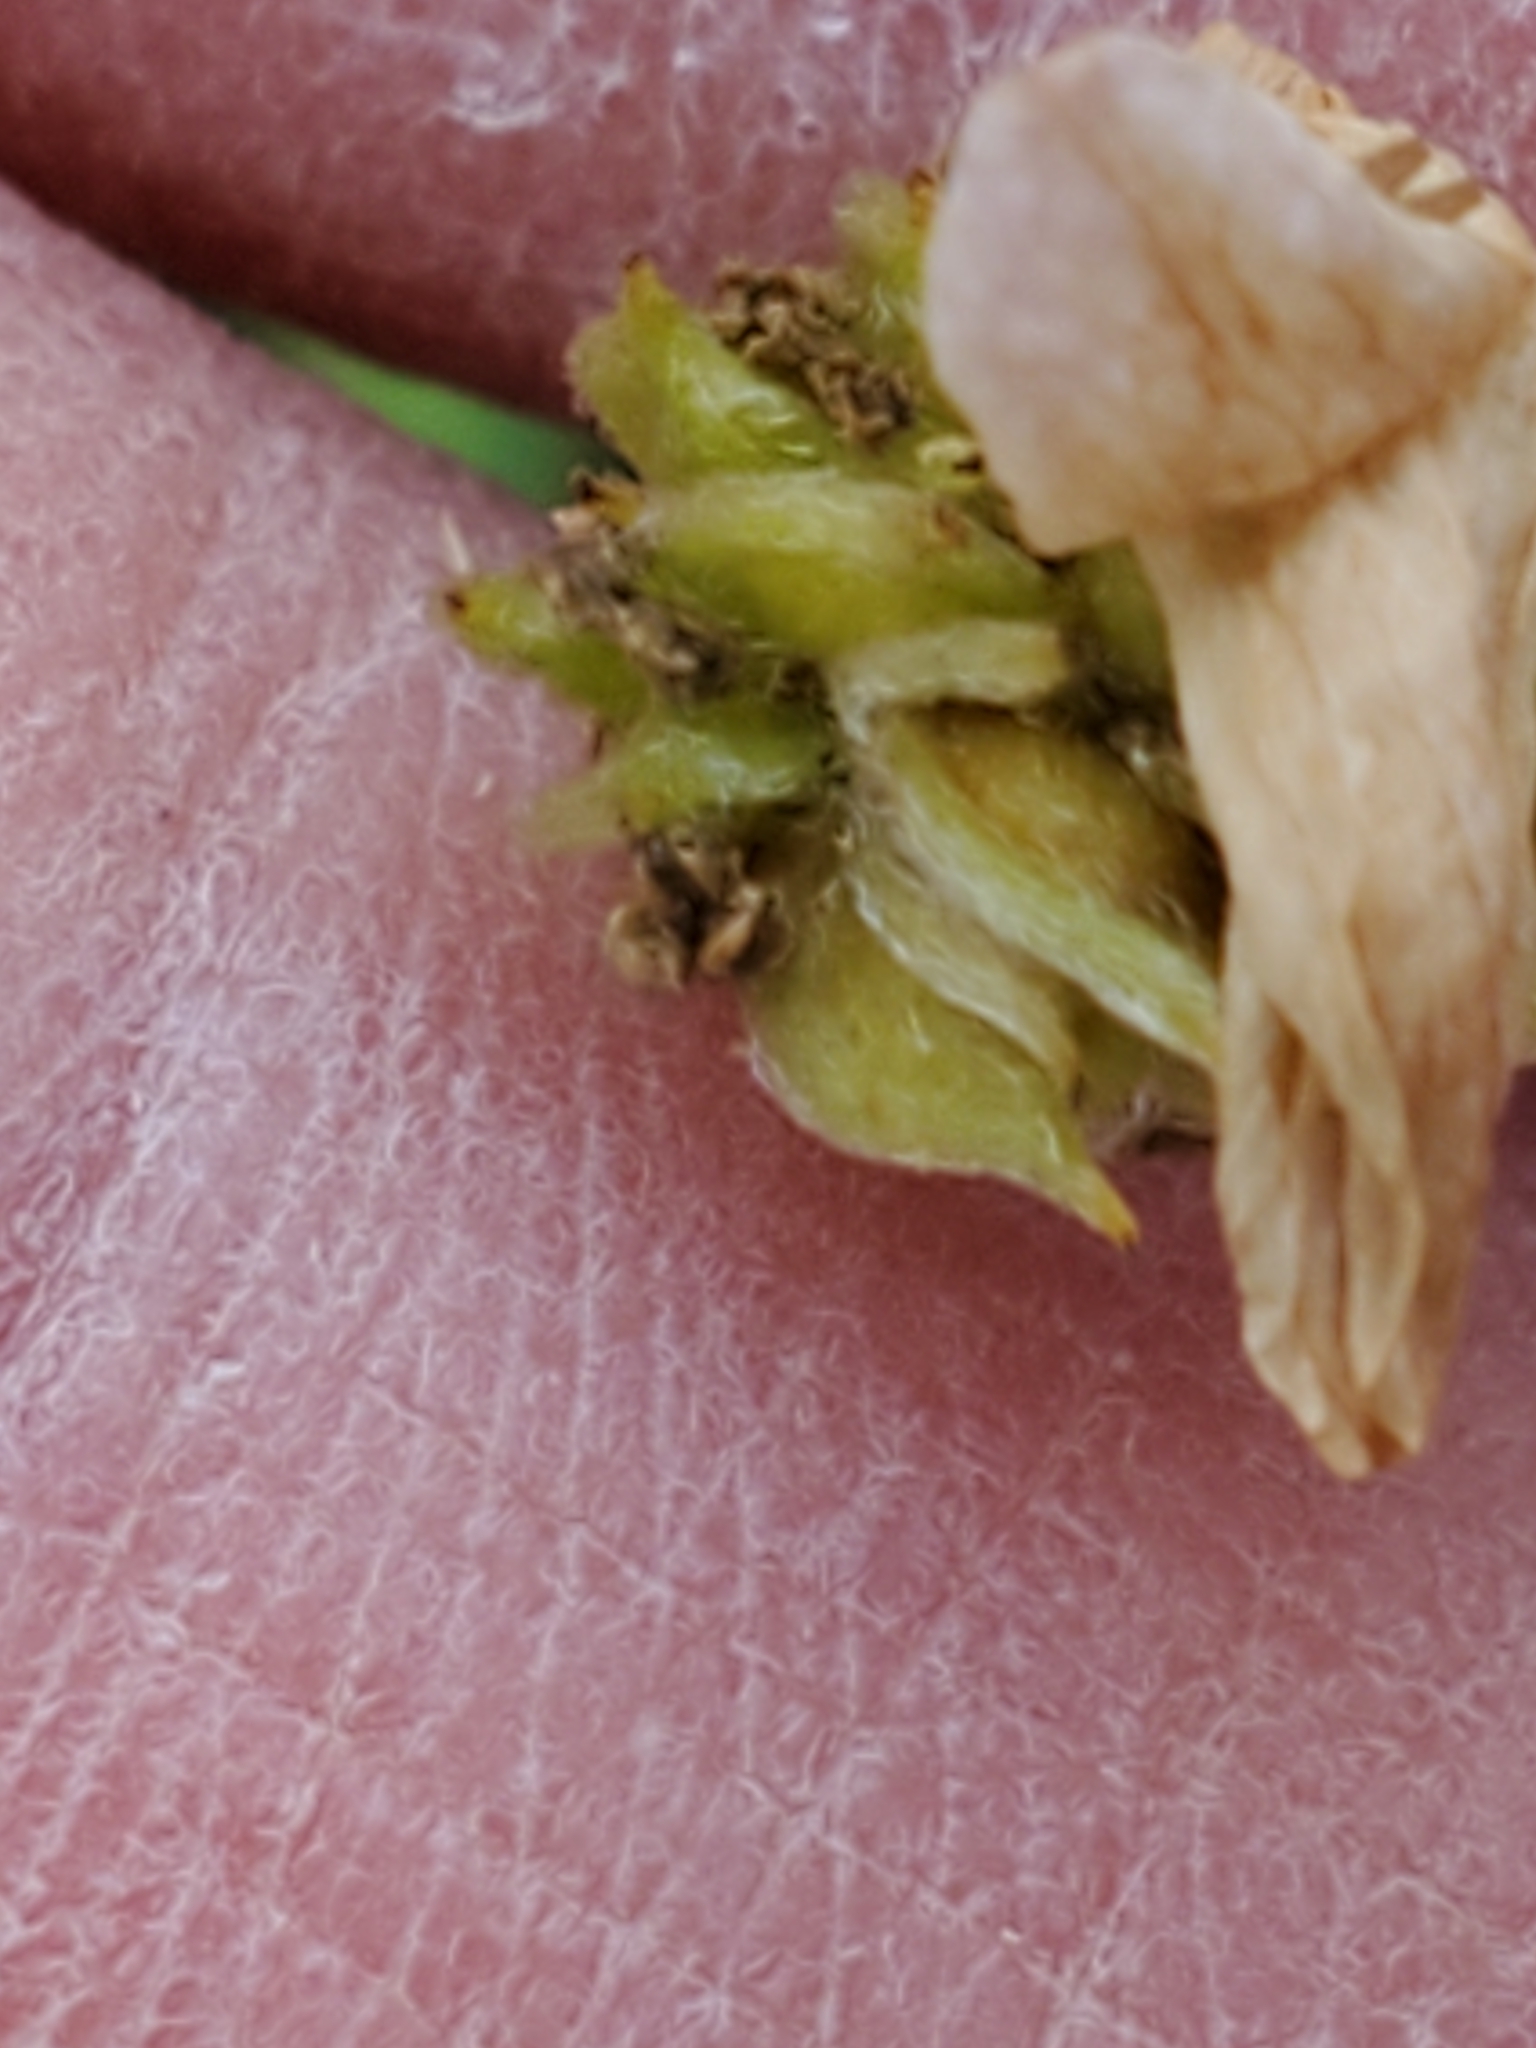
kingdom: Plantae
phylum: Tracheophyta
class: Magnoliopsida
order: Ranunculales
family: Ranunculaceae
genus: Anemone
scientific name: Anemone edwardsiana
